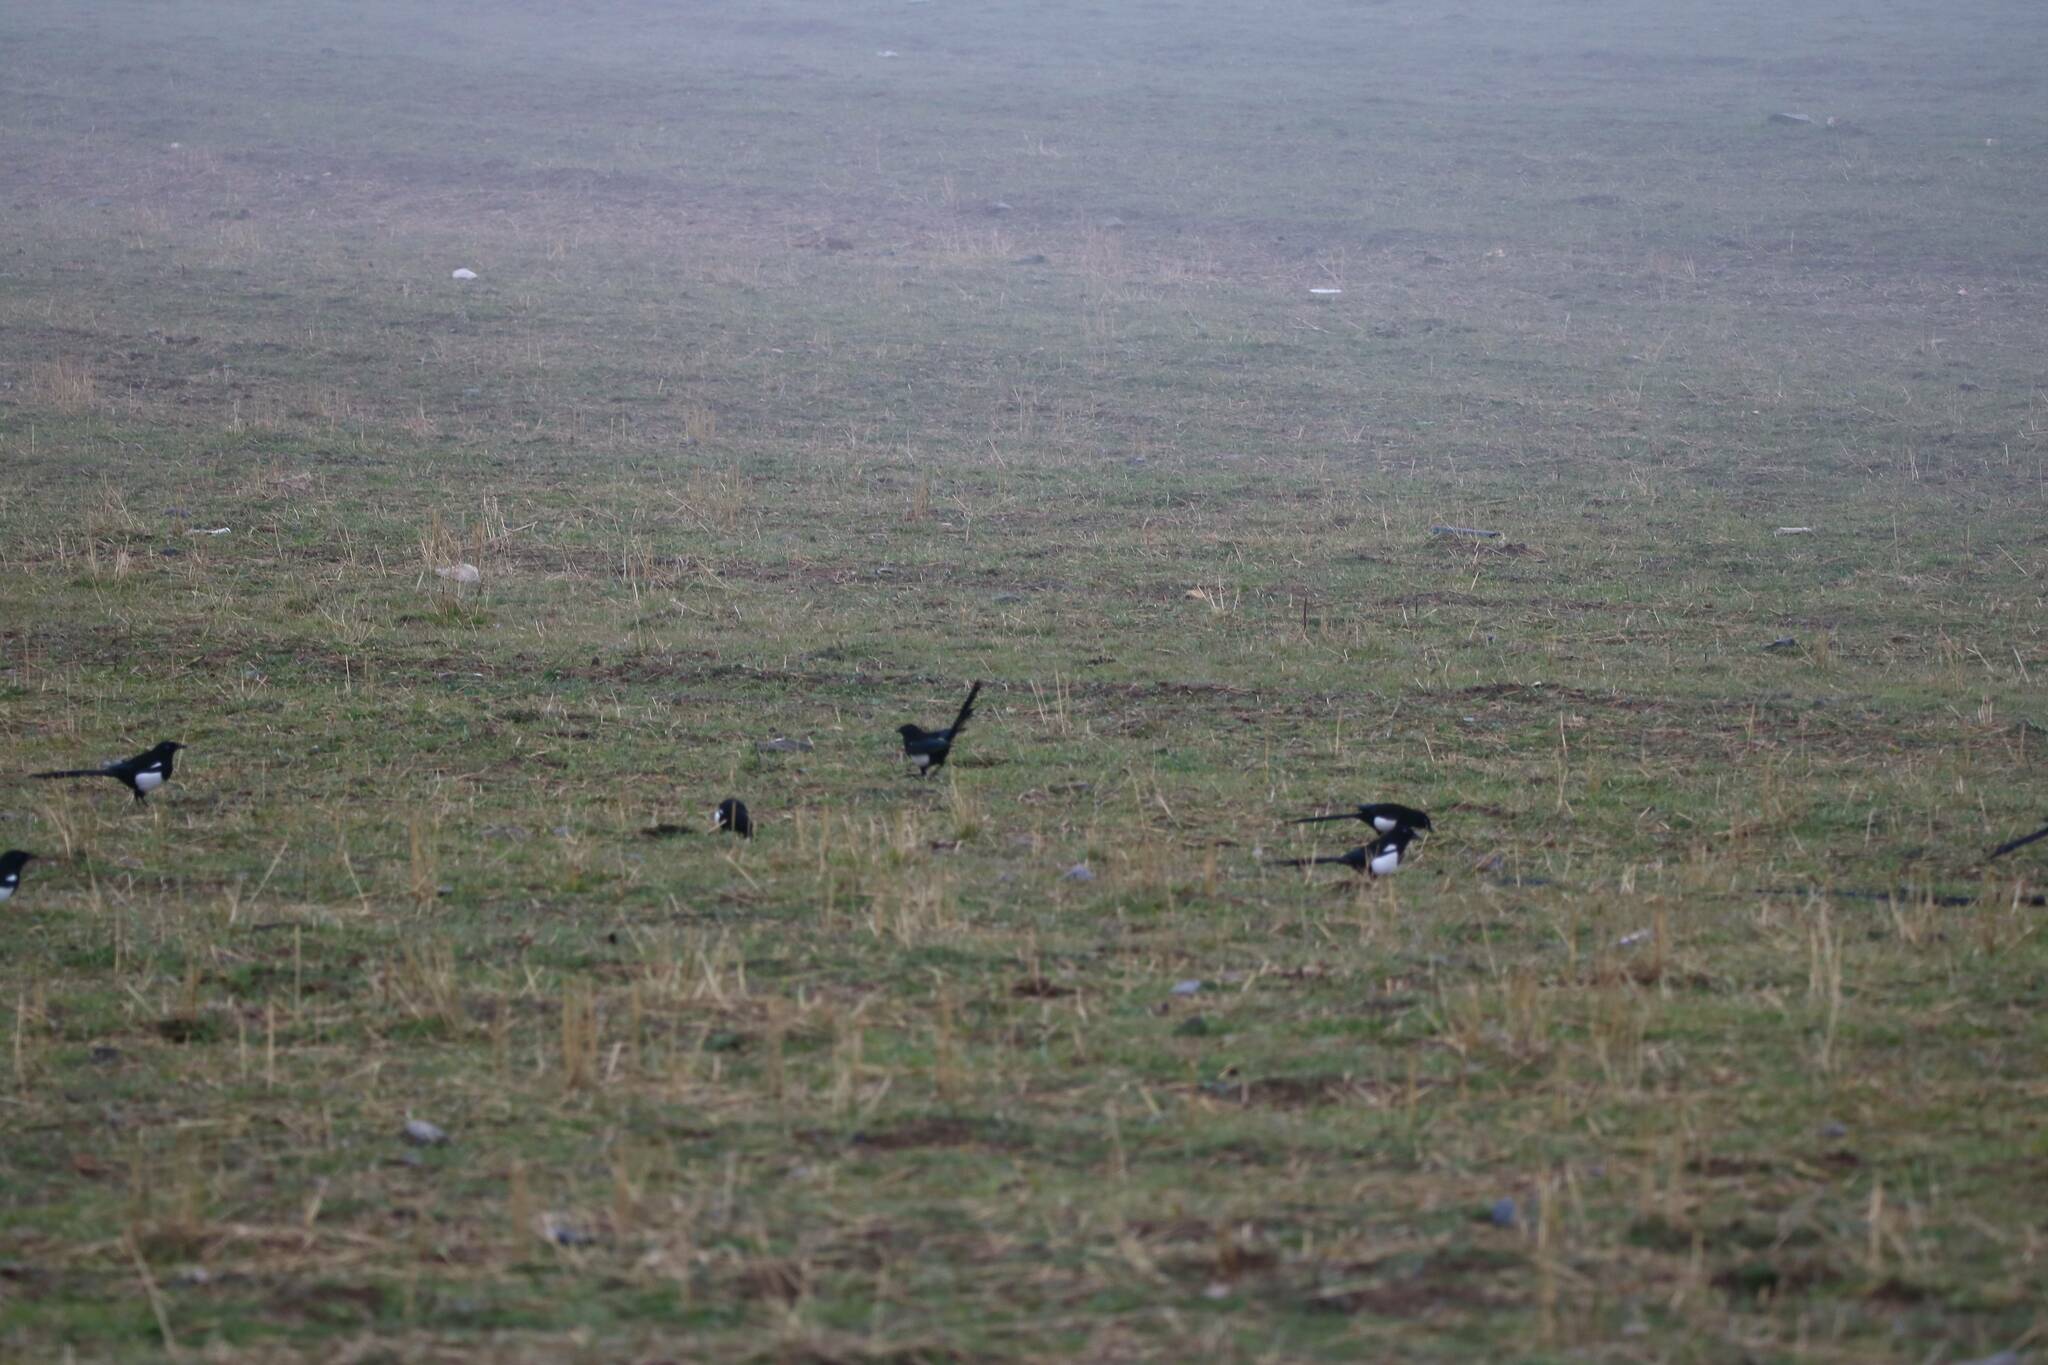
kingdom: Animalia
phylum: Chordata
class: Aves
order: Passeriformes
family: Corvidae
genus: Pica
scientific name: Pica mauritanica
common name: Maghreb magpie
